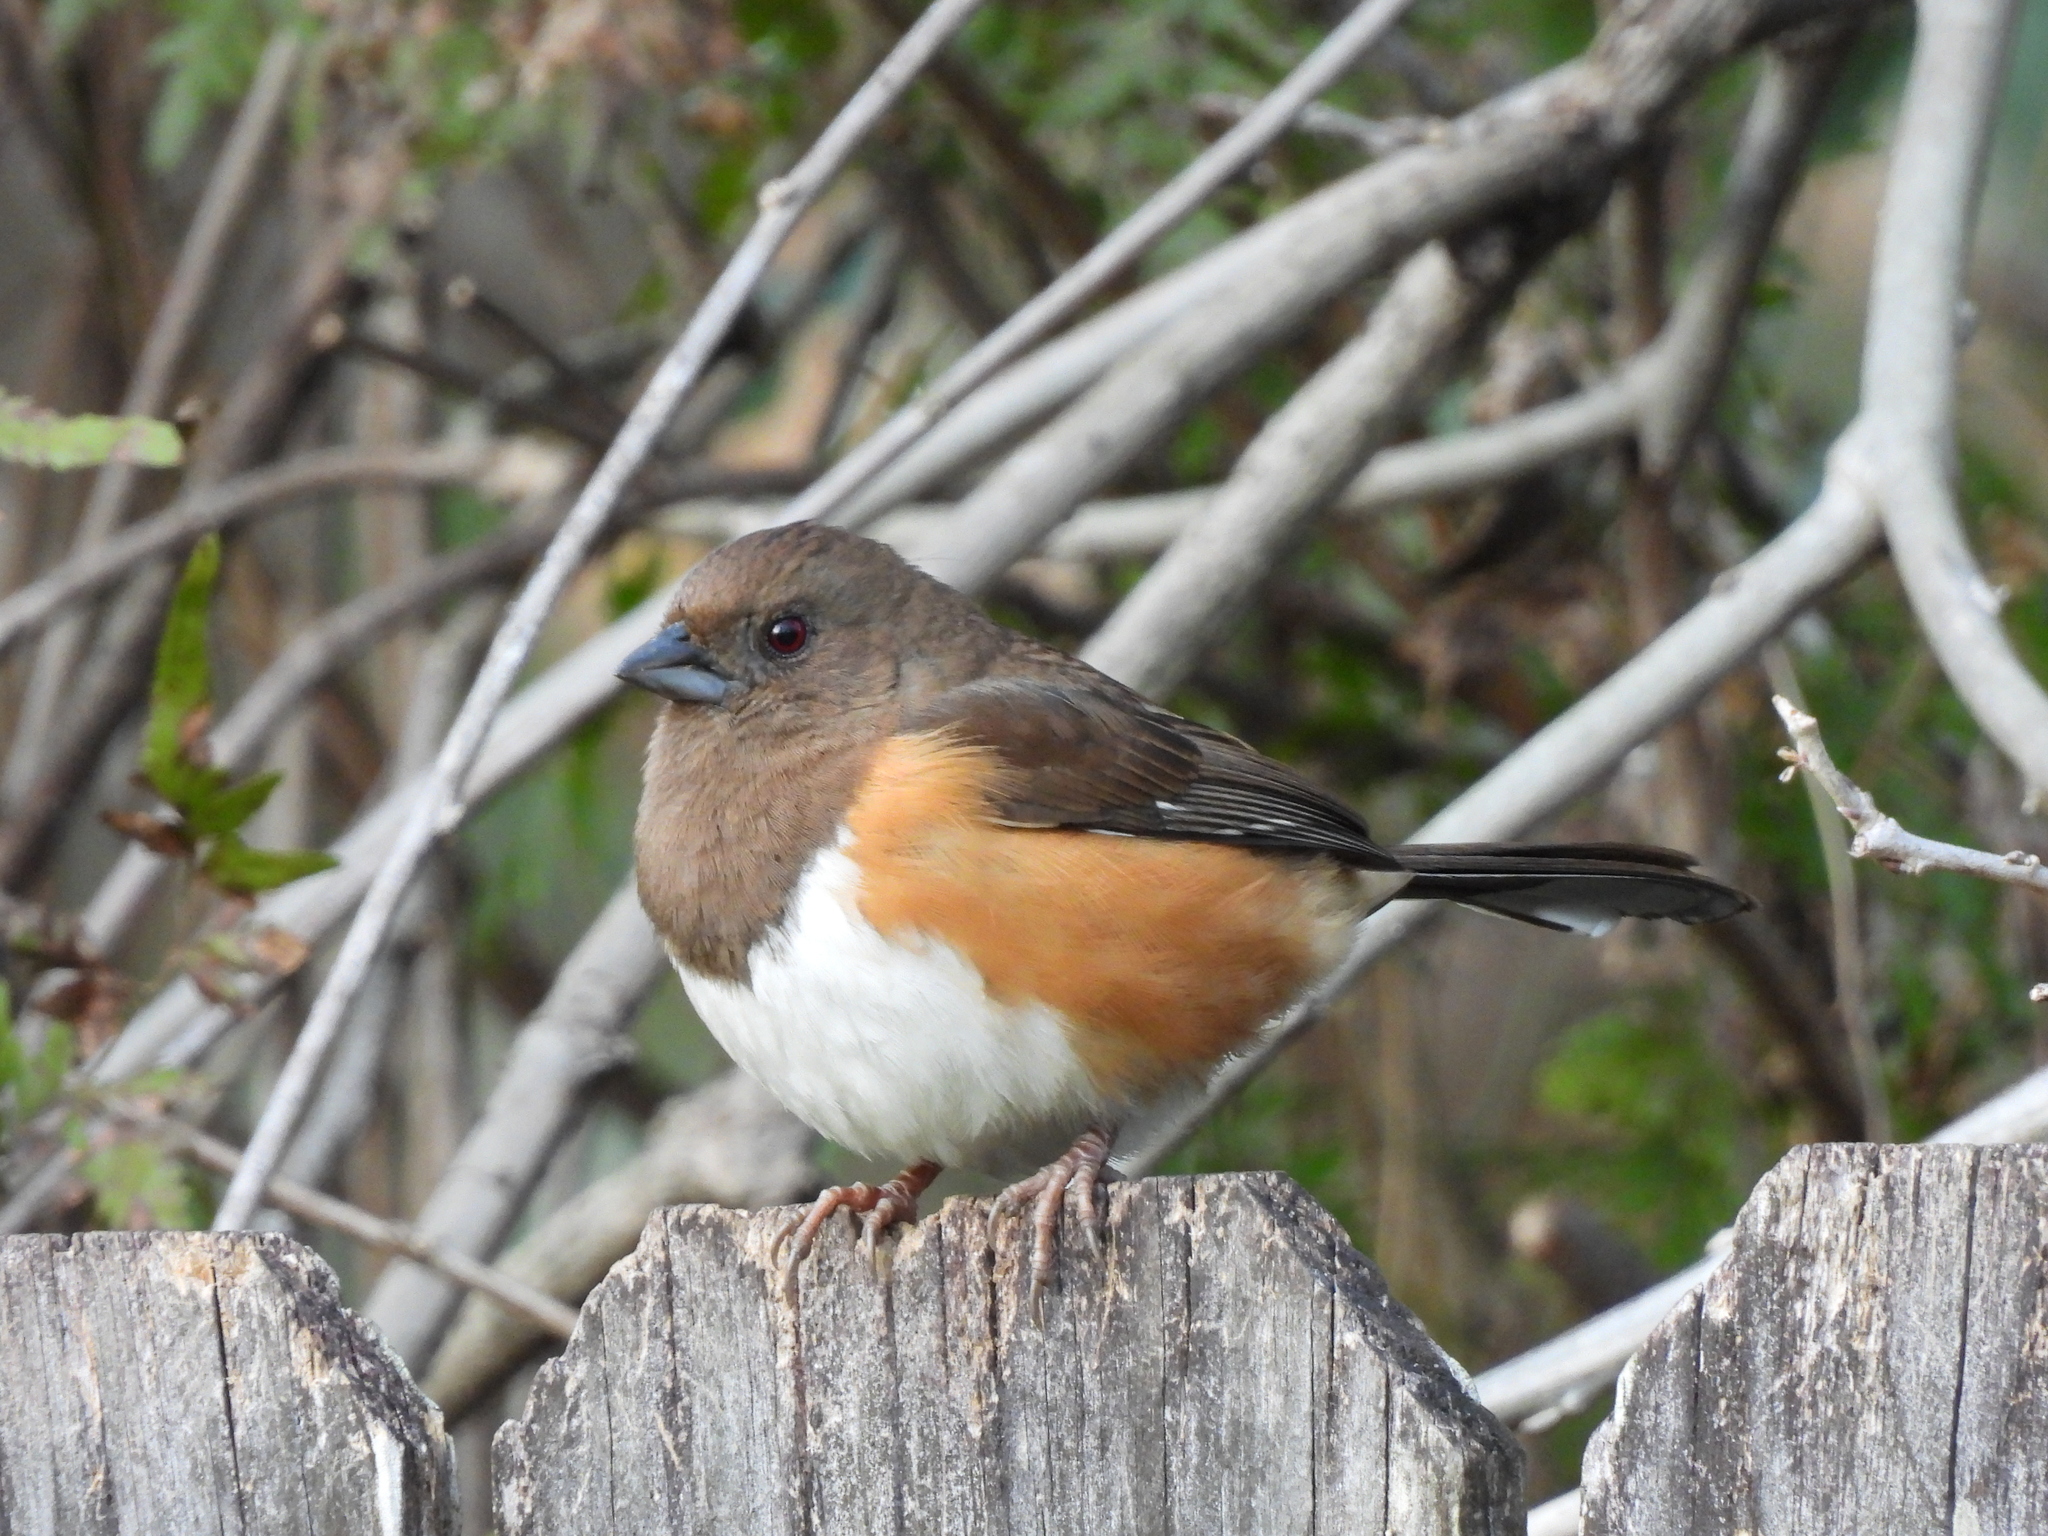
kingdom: Animalia
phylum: Chordata
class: Aves
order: Passeriformes
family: Passerellidae
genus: Pipilo
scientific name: Pipilo erythrophthalmus
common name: Eastern towhee
